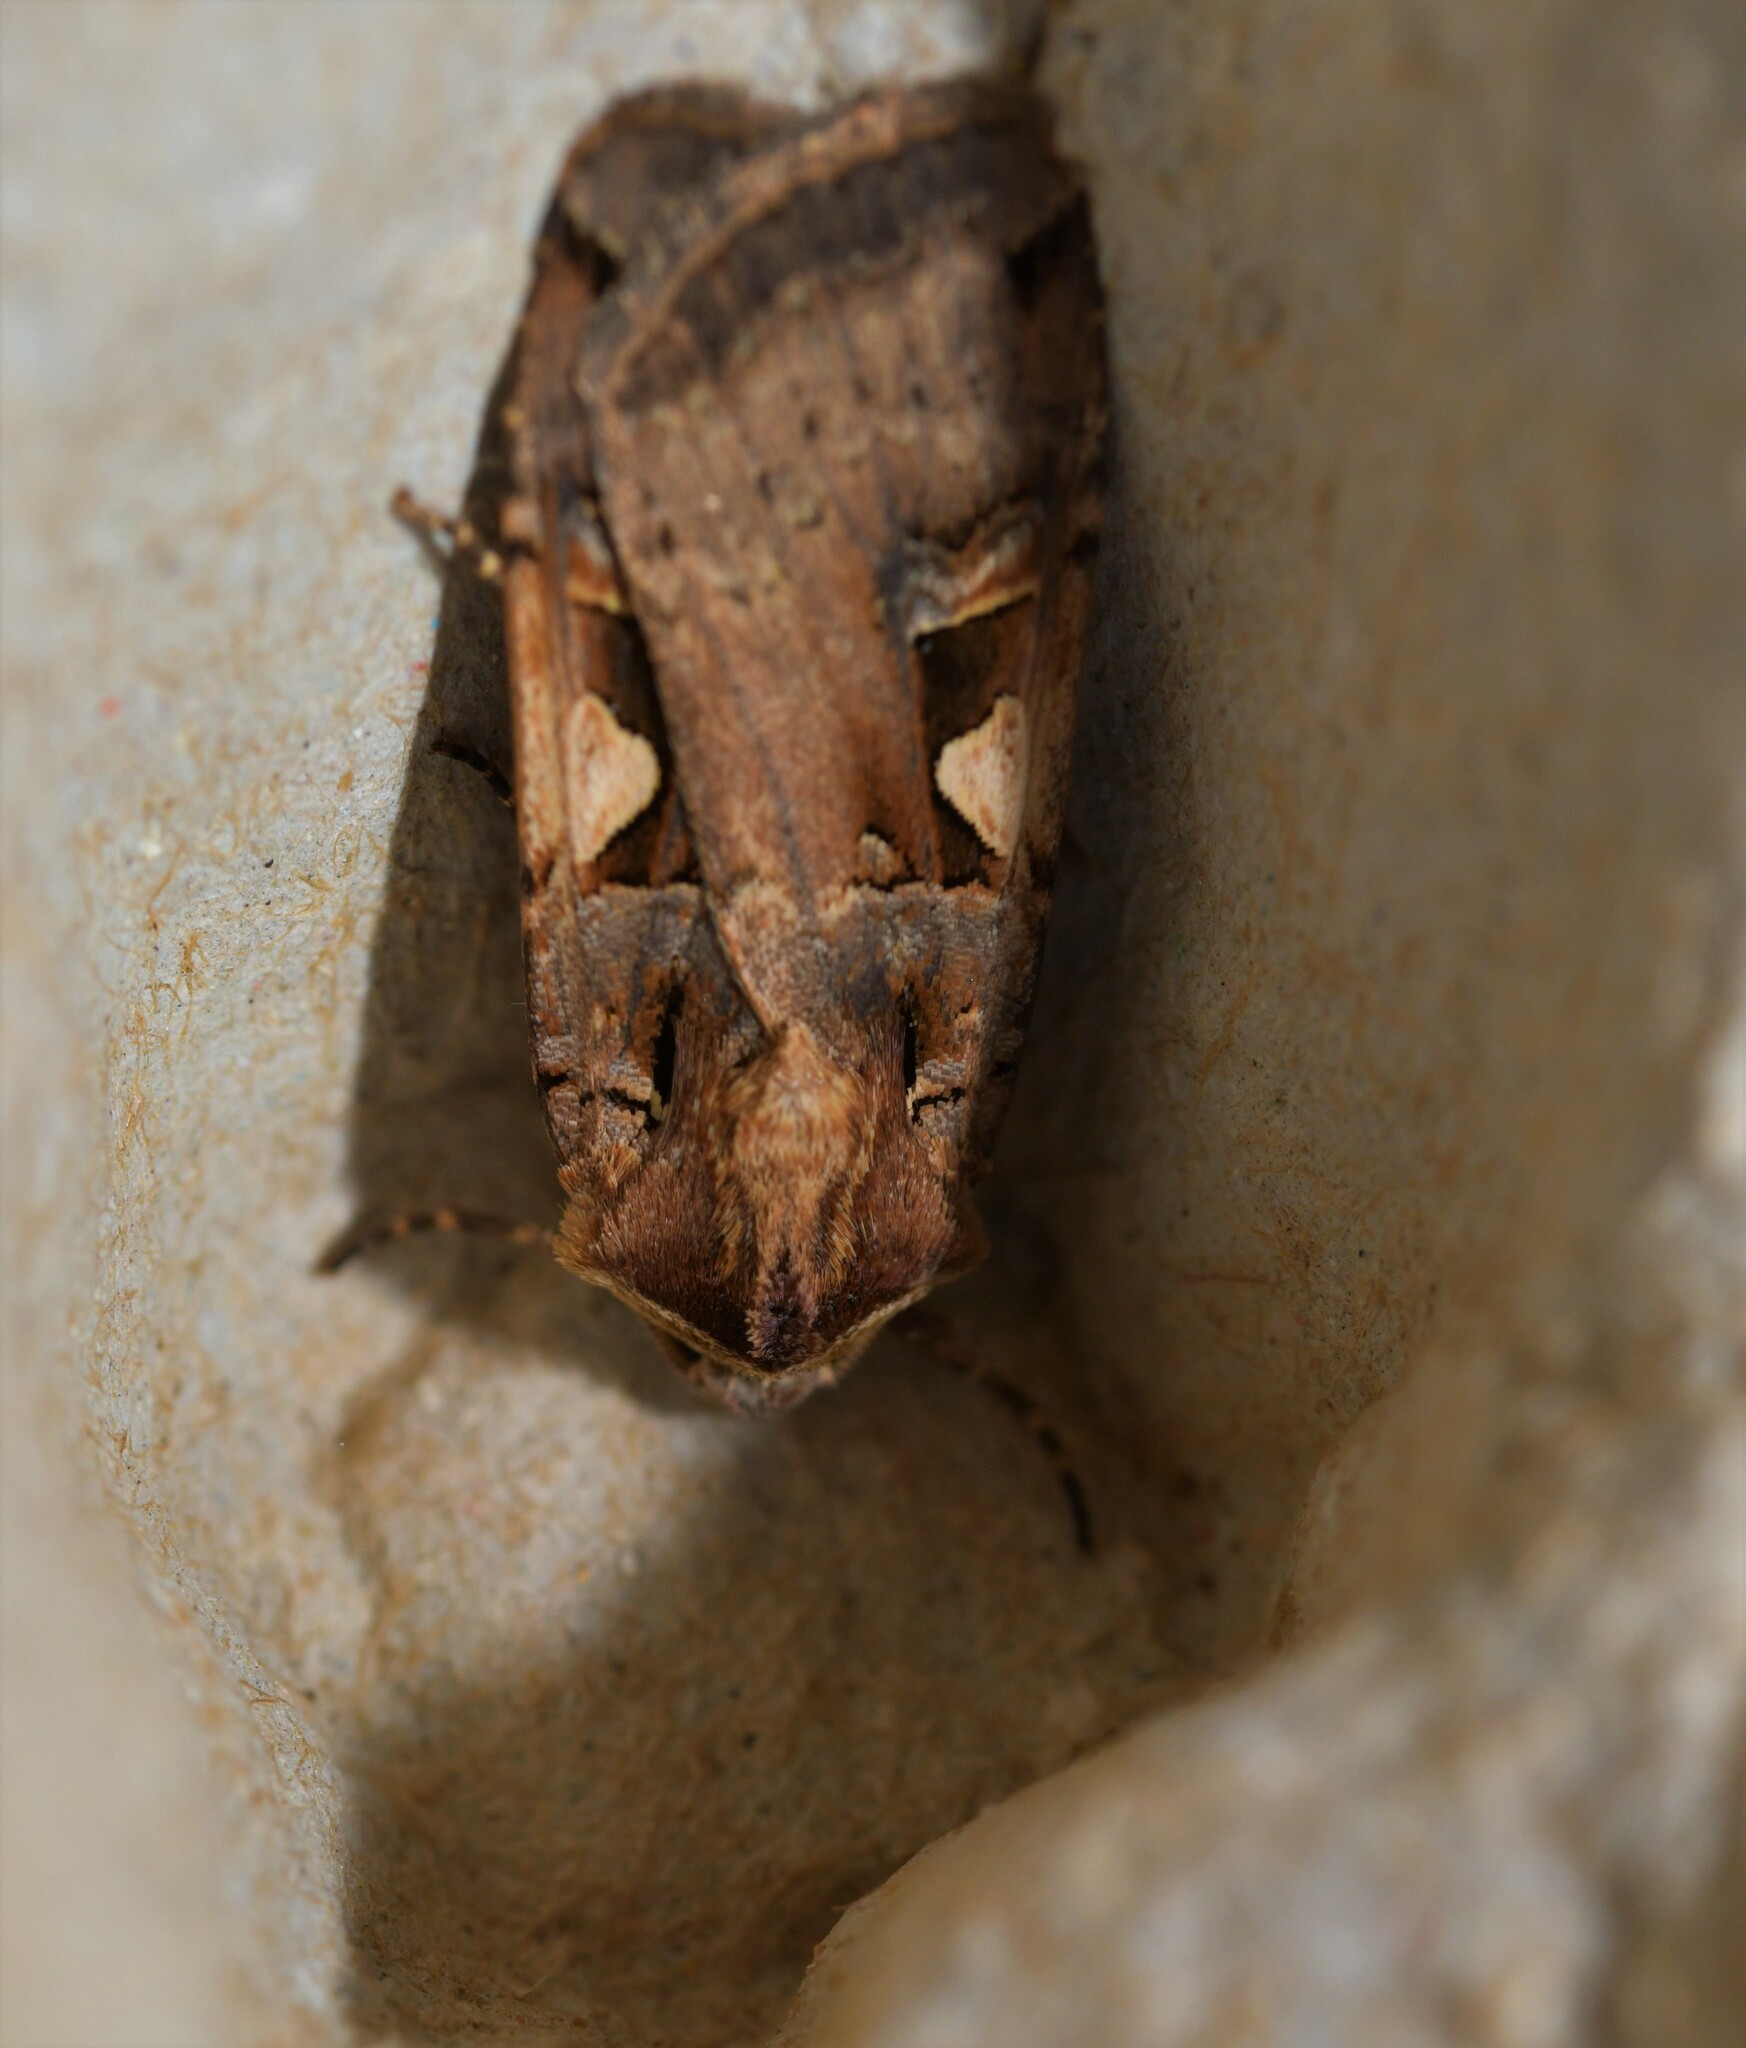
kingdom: Animalia
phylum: Arthropoda
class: Insecta
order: Lepidoptera
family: Noctuidae
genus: Xestia
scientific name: Xestia c-nigrum
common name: Setaceous hebrew character
